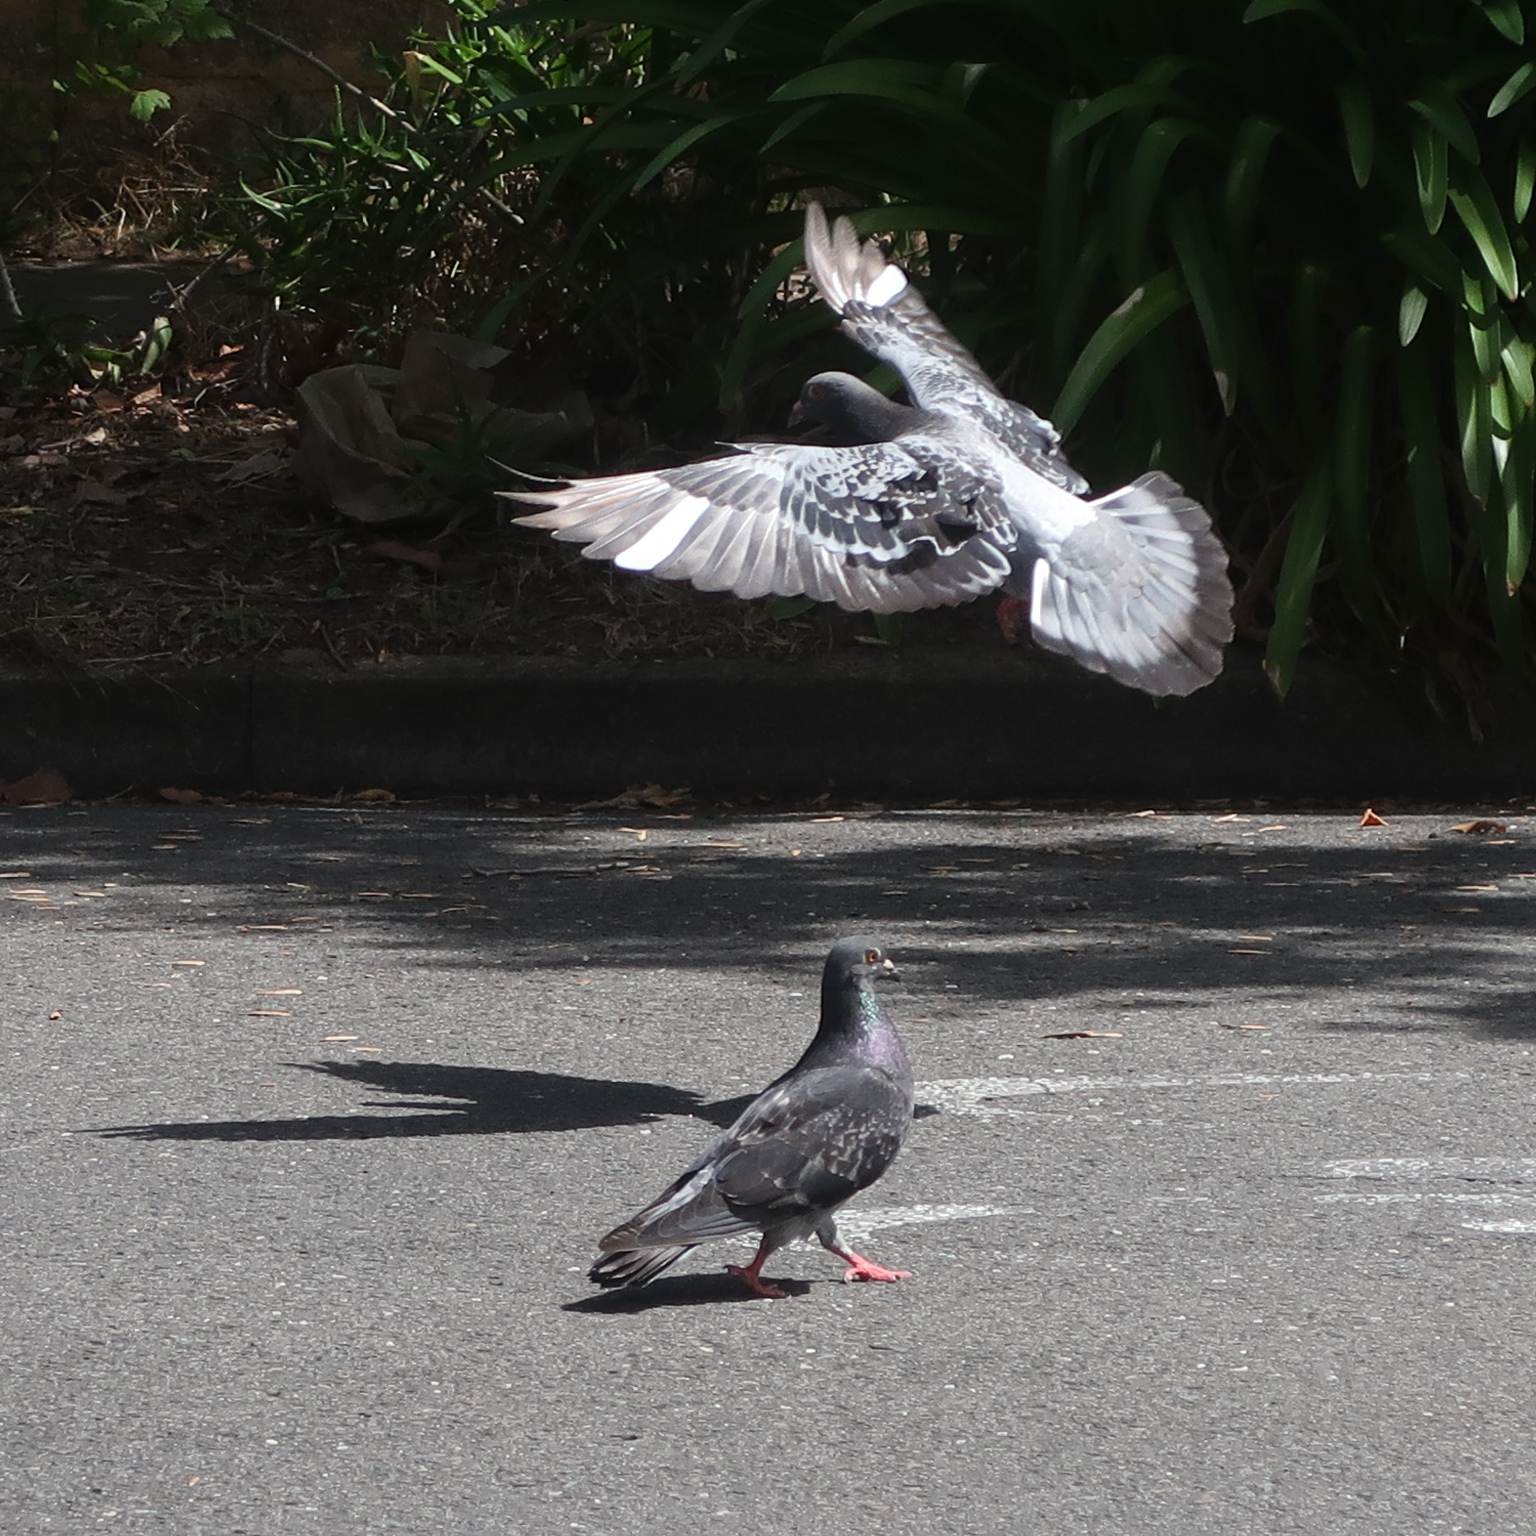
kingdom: Animalia
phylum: Chordata
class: Aves
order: Columbiformes
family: Columbidae
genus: Columba
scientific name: Columba livia
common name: Rock pigeon
